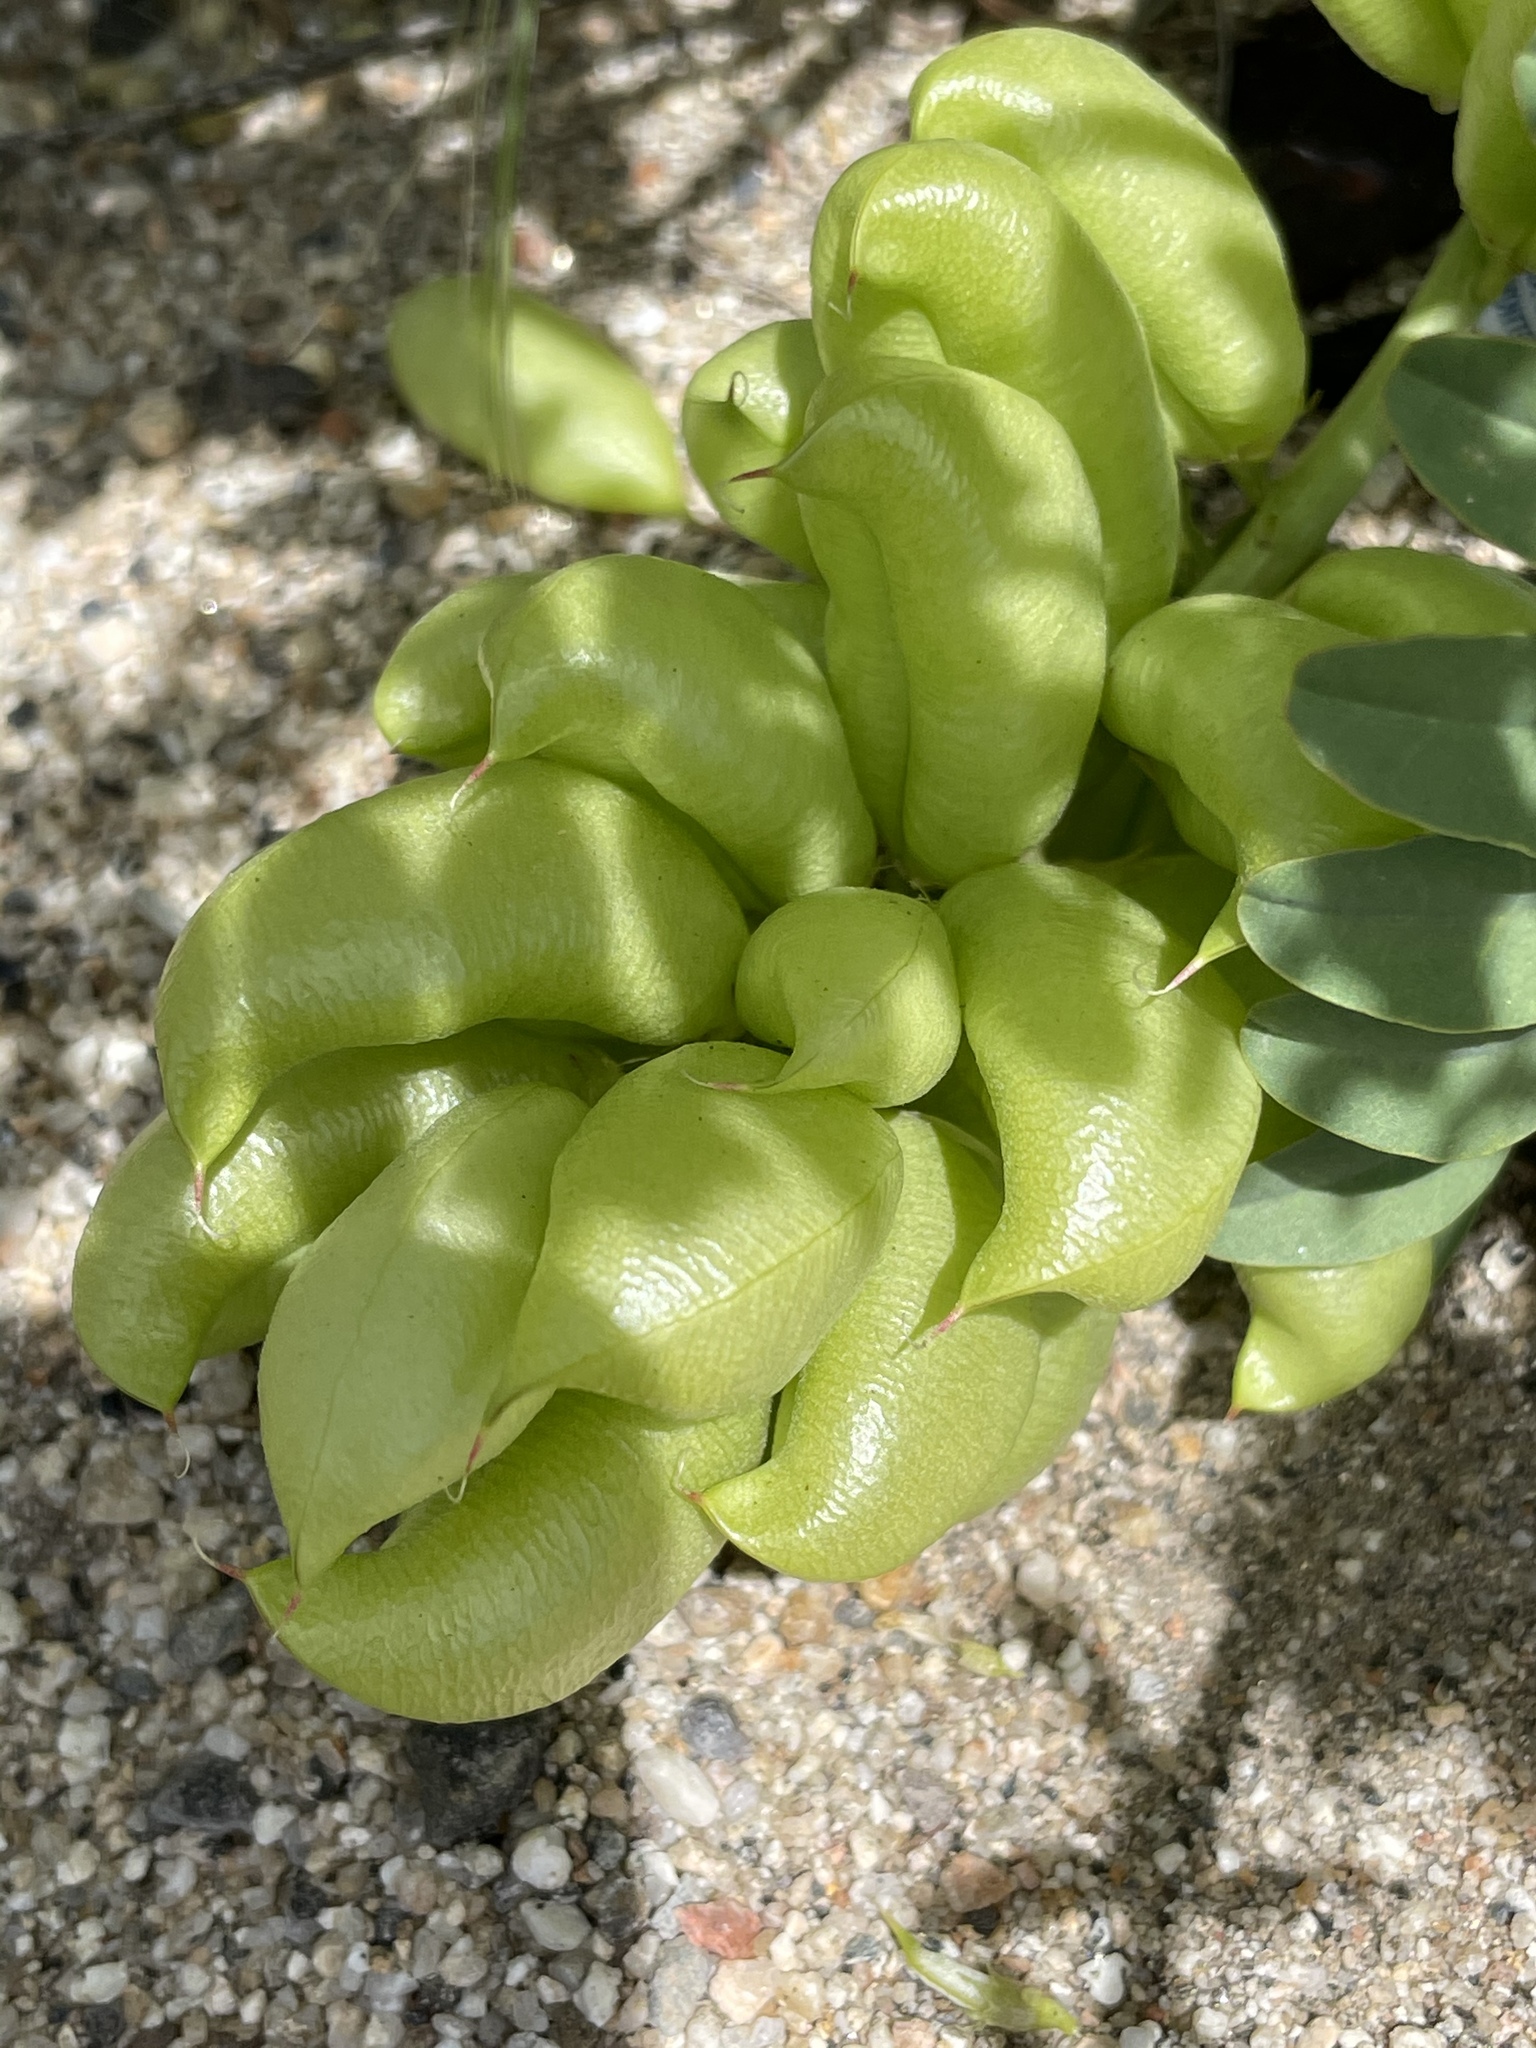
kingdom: Plantae
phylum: Tracheophyta
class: Magnoliopsida
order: Fabales
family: Fabaceae
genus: Astragalus
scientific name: Astragalus pomonensis
